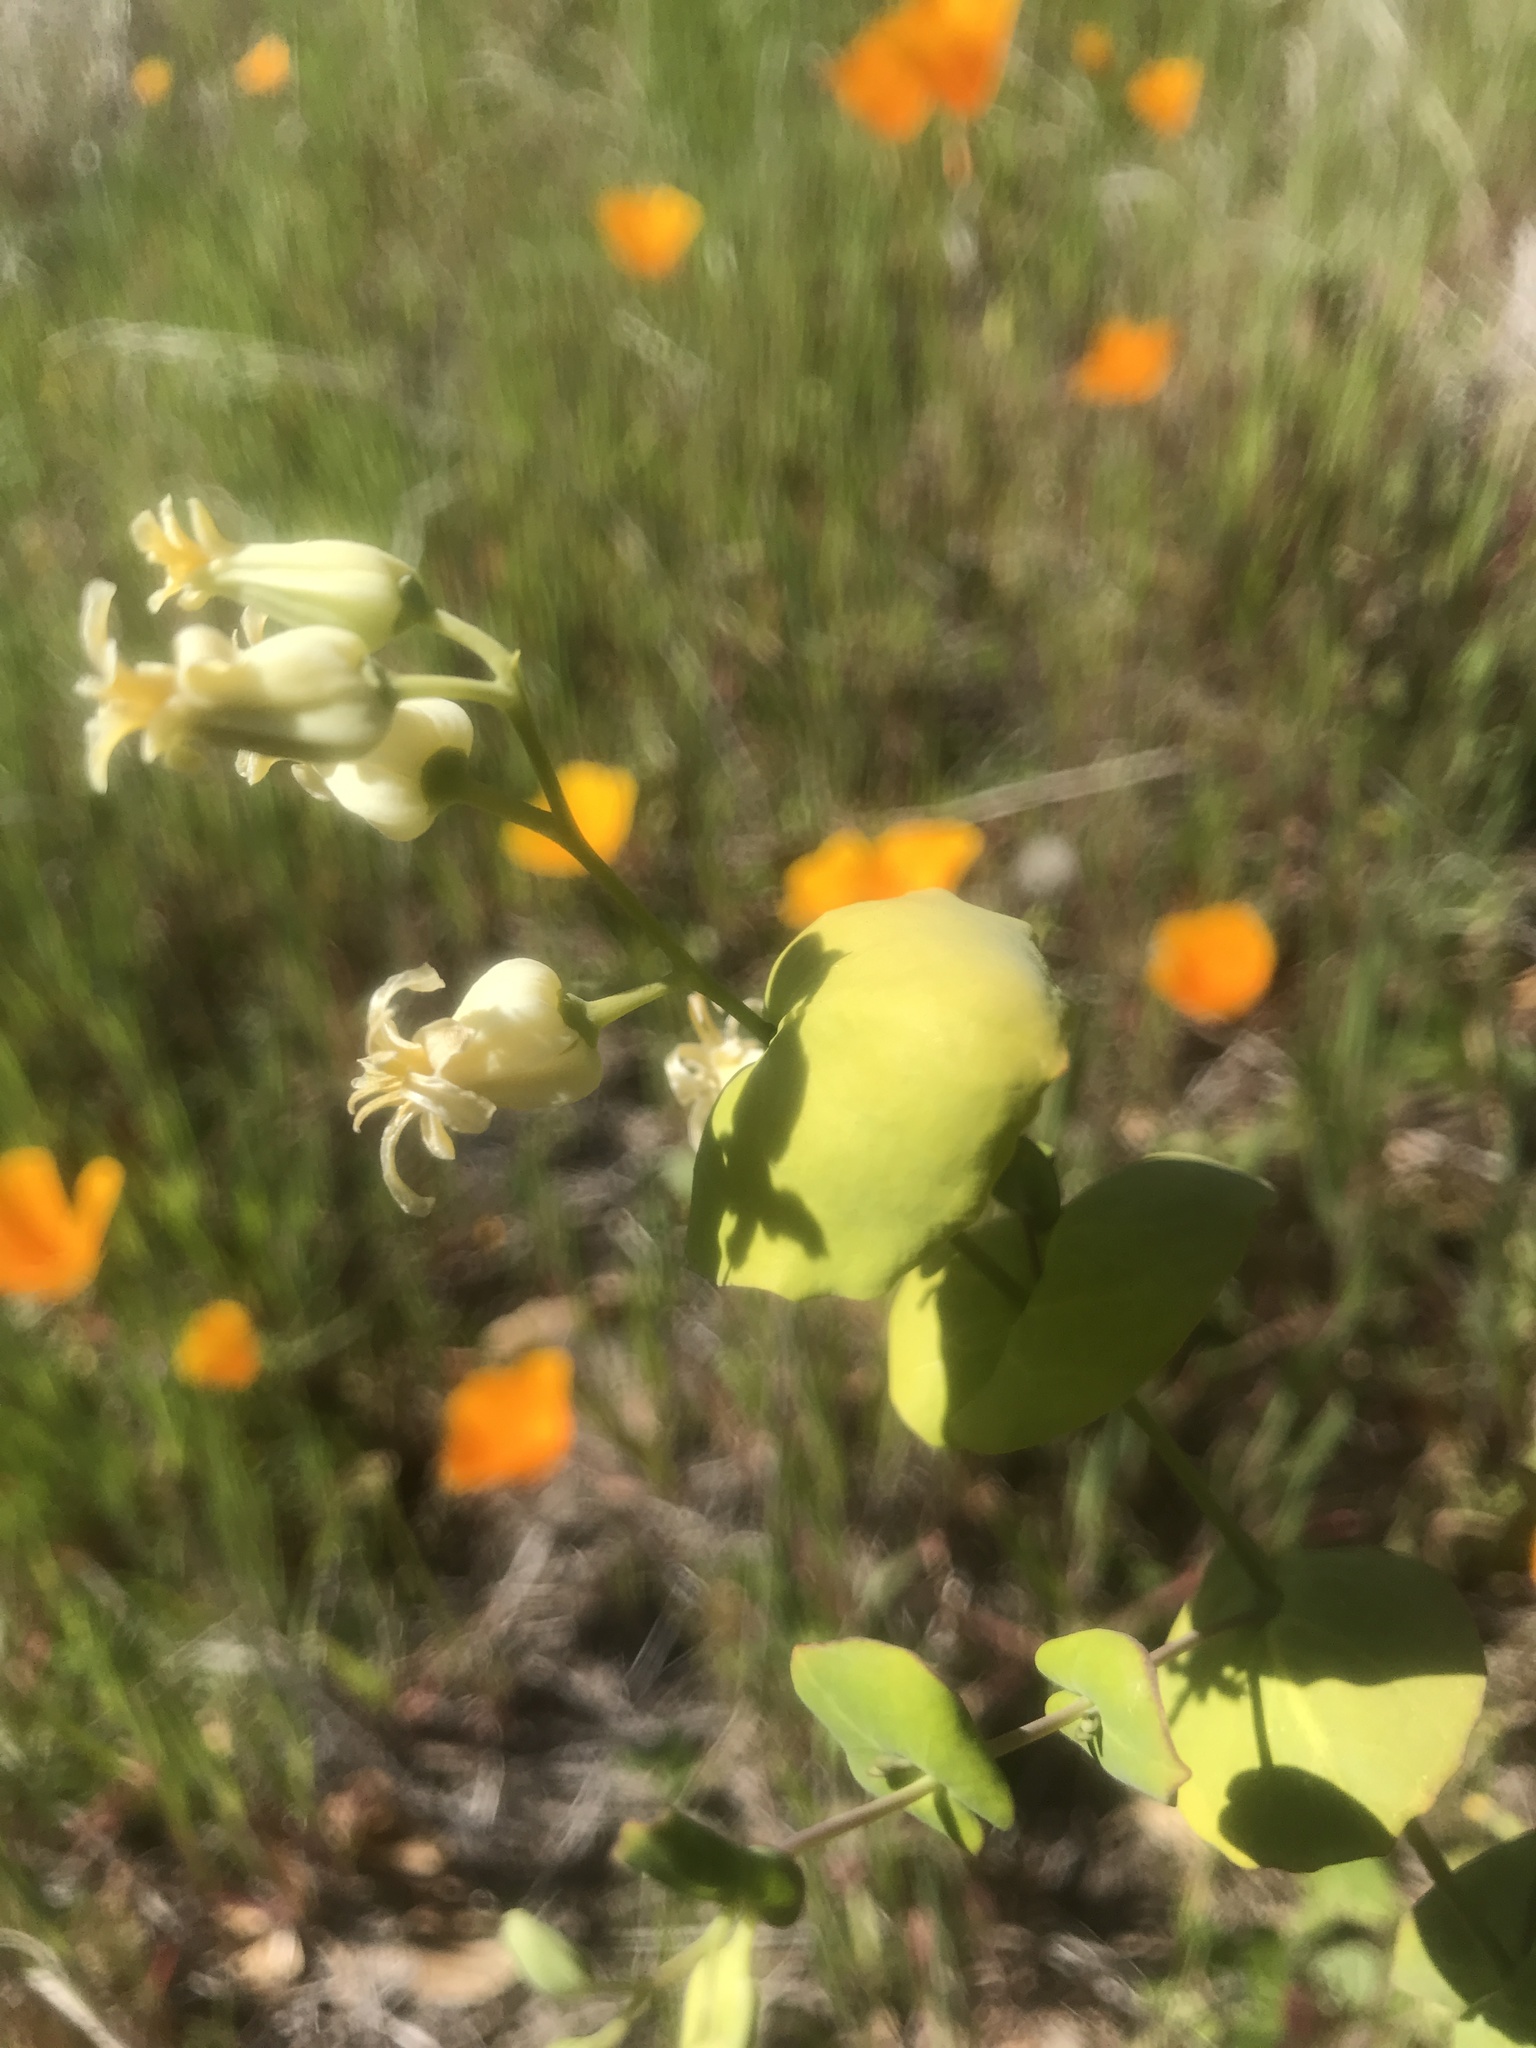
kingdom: Plantae
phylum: Tracheophyta
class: Magnoliopsida
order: Brassicales
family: Brassicaceae
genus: Streptanthus
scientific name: Streptanthus tortuosus
